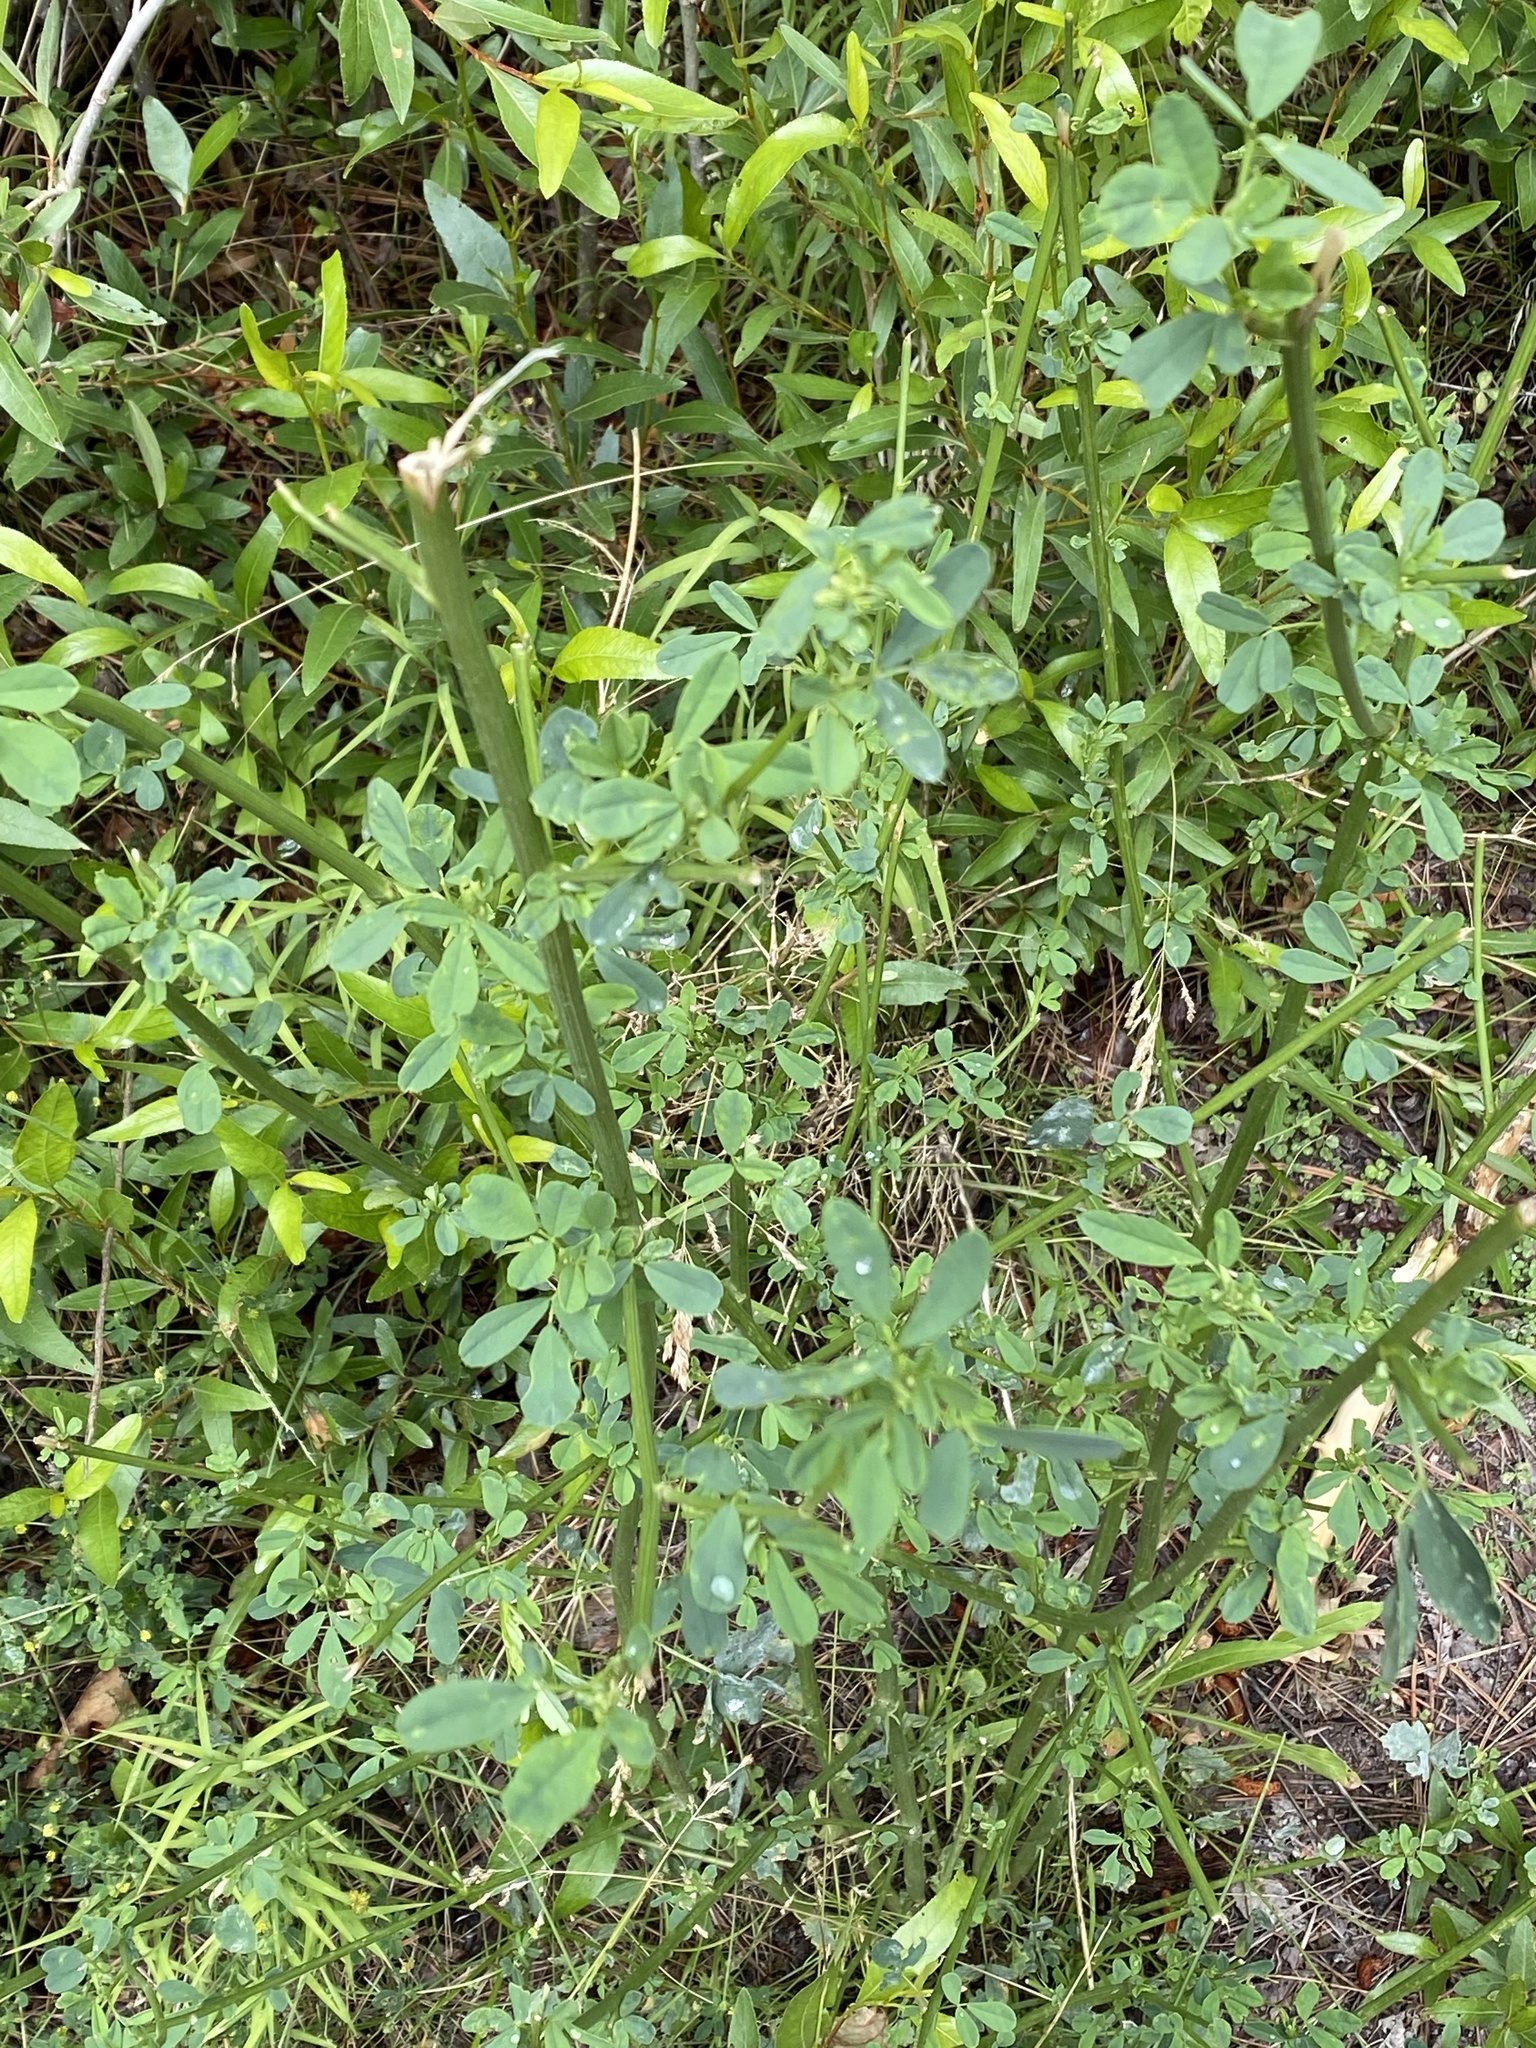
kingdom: Plantae
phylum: Tracheophyta
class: Magnoliopsida
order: Fabales
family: Fabaceae
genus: Melilotus
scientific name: Melilotus albus
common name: White melilot
